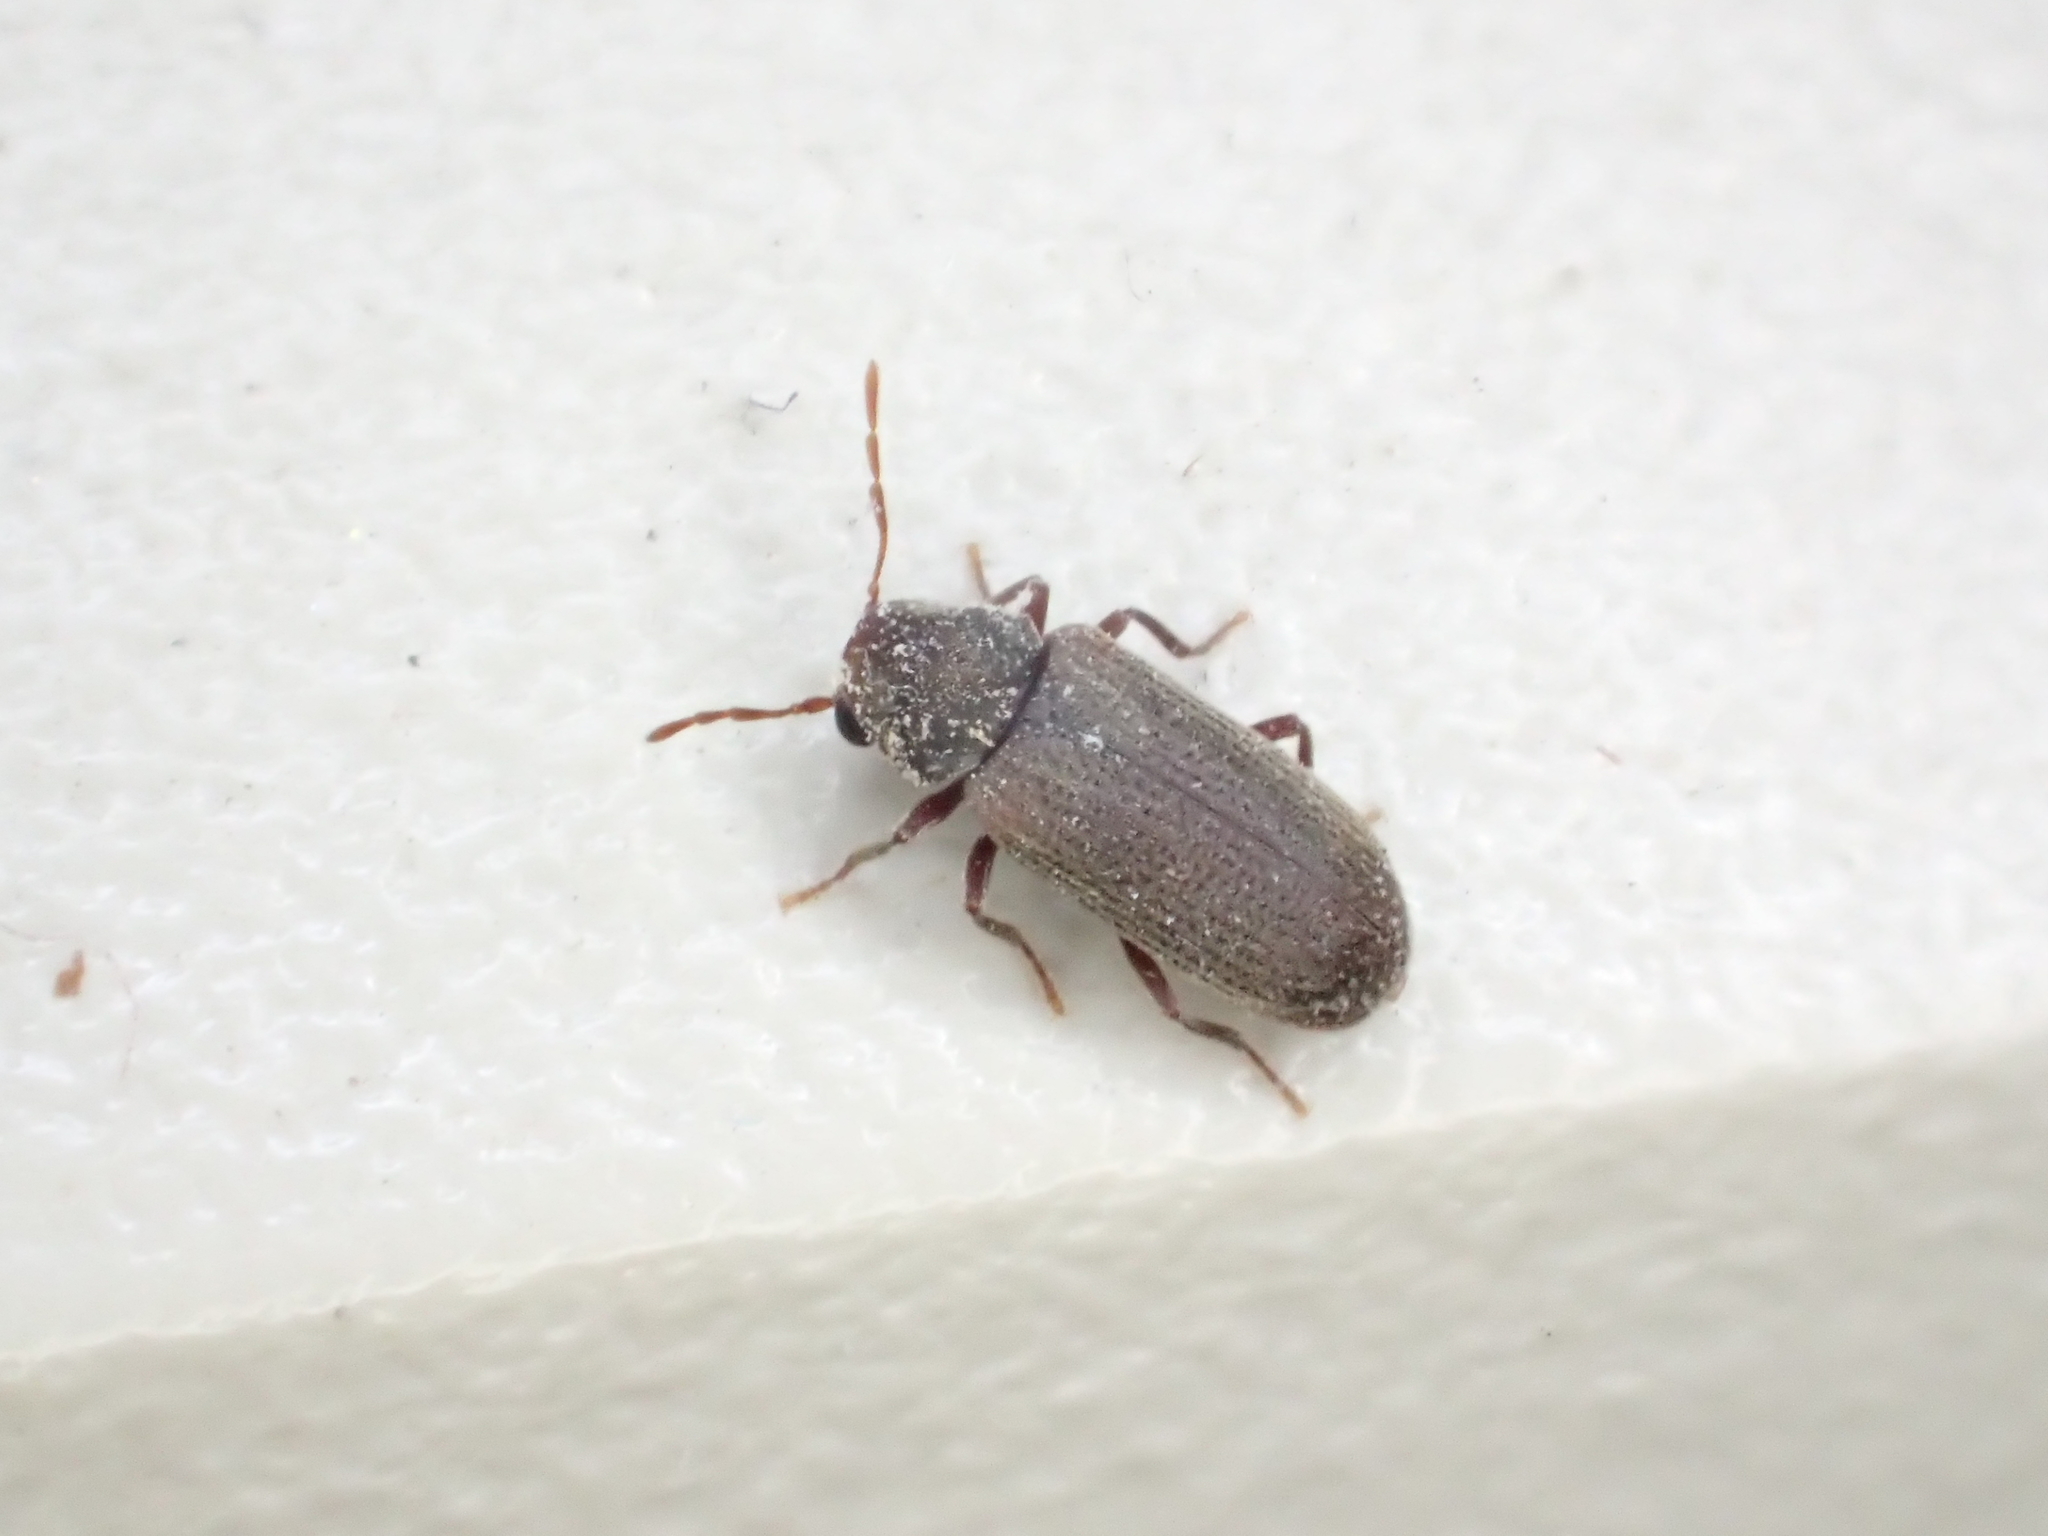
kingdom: Animalia
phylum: Arthropoda
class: Insecta
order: Coleoptera
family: Anobiidae
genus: Anobium
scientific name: Anobium punctatum
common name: Furniture beetle
